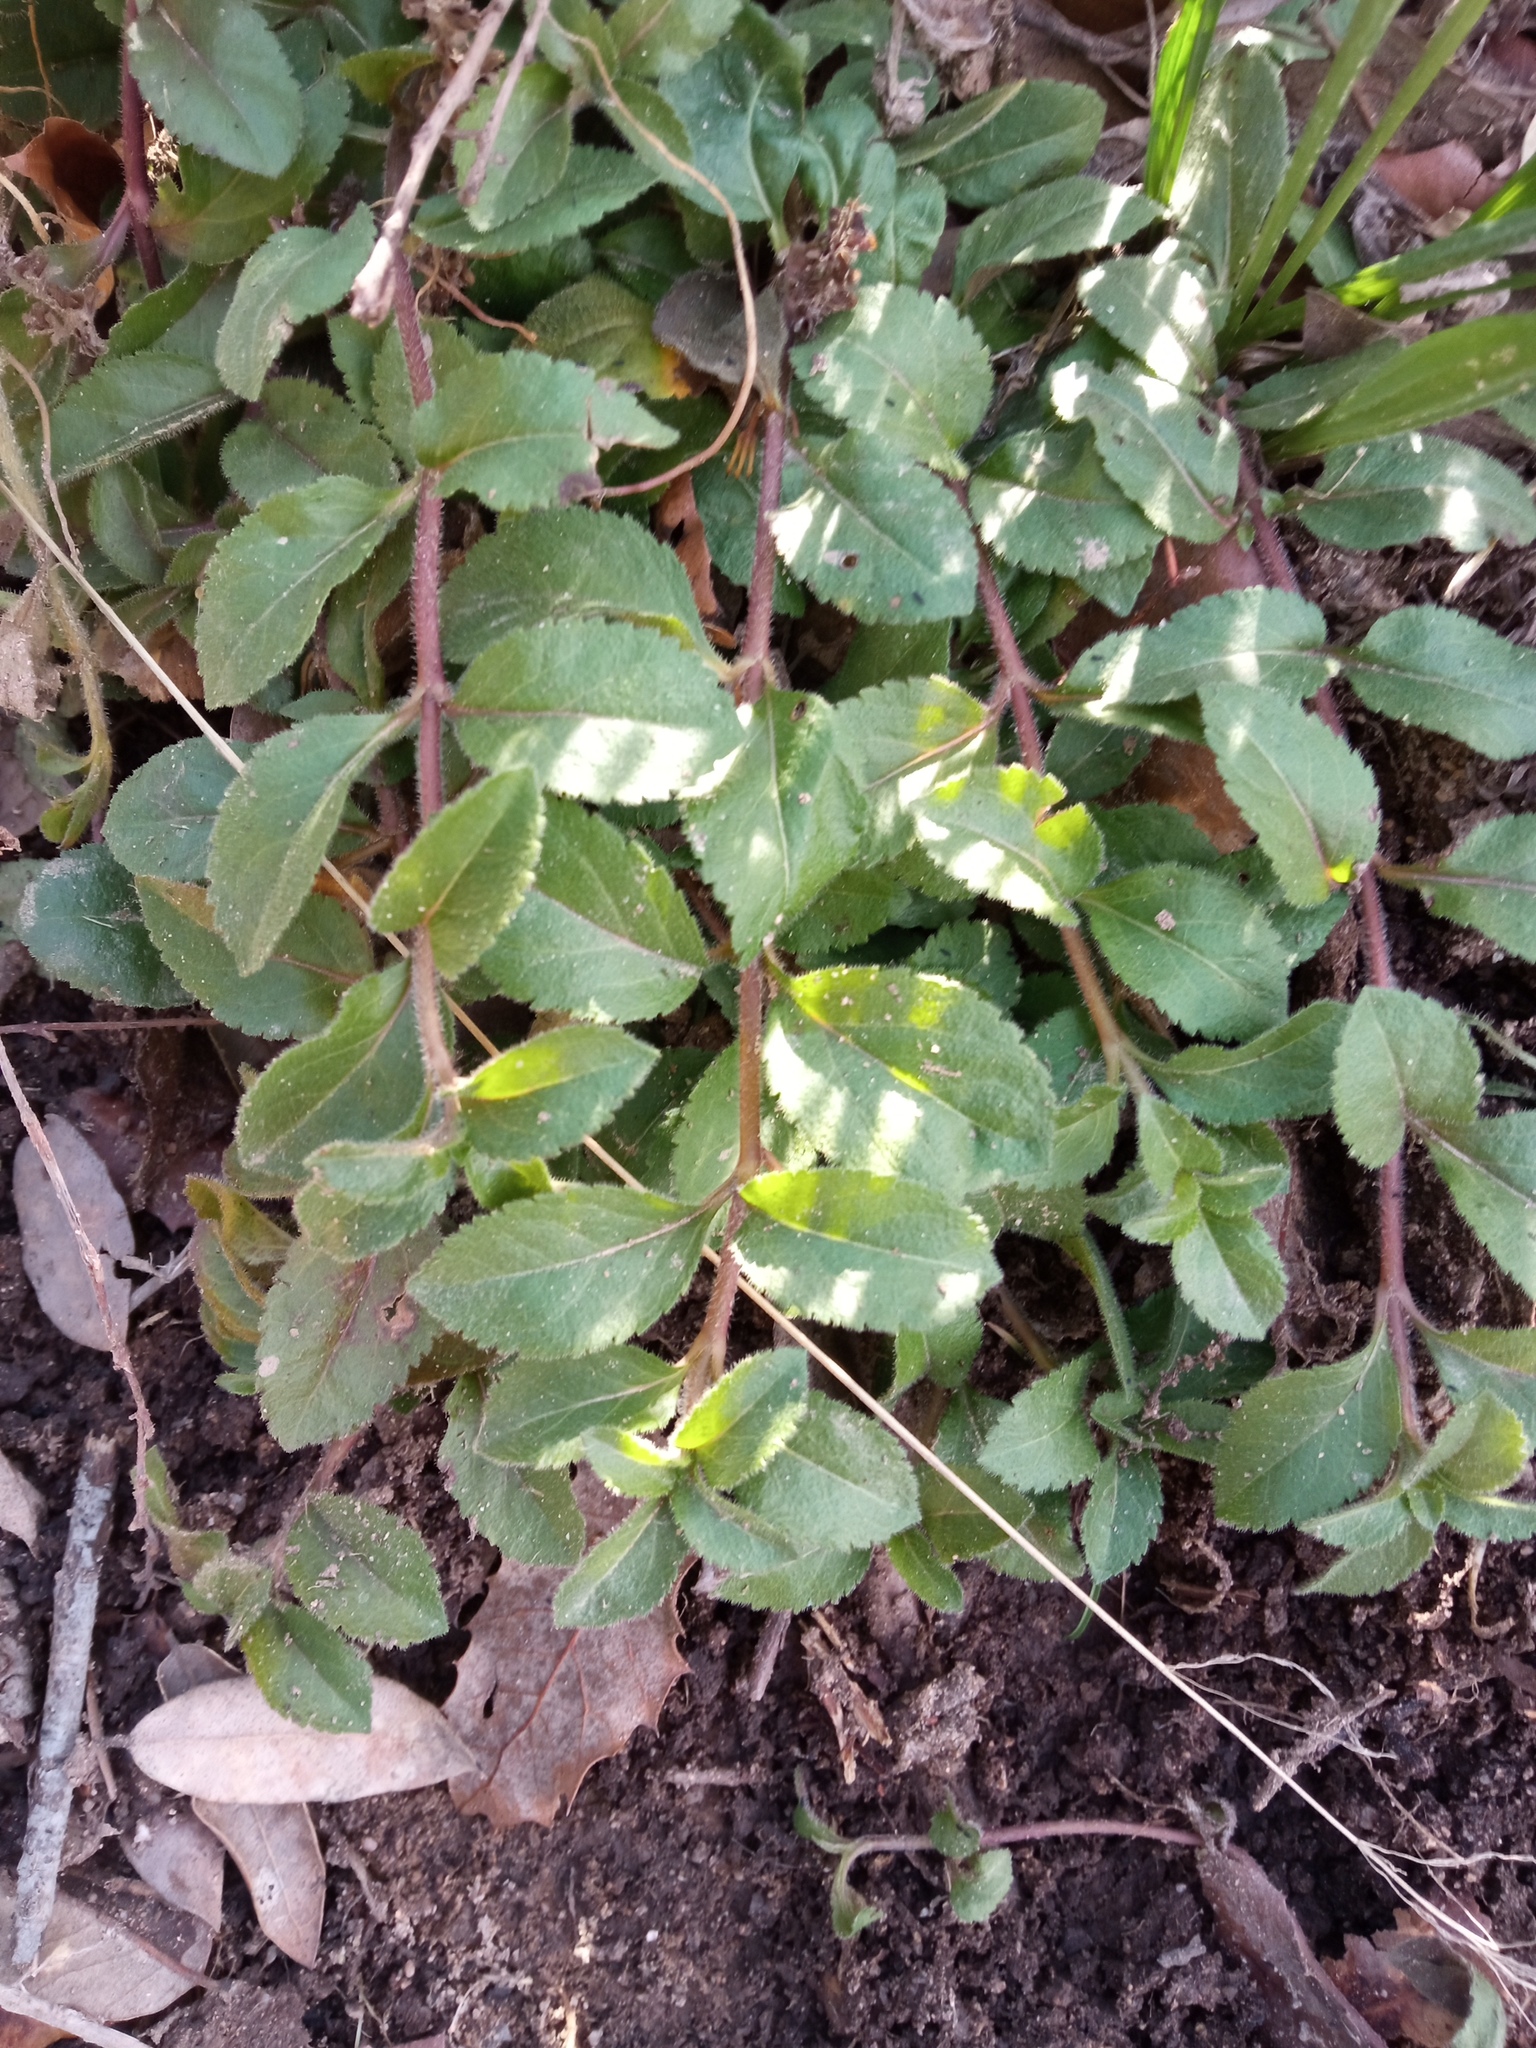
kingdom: Plantae
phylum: Tracheophyta
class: Magnoliopsida
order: Lamiales
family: Plantaginaceae
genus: Veronica
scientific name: Veronica officinalis
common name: Common speedwell
